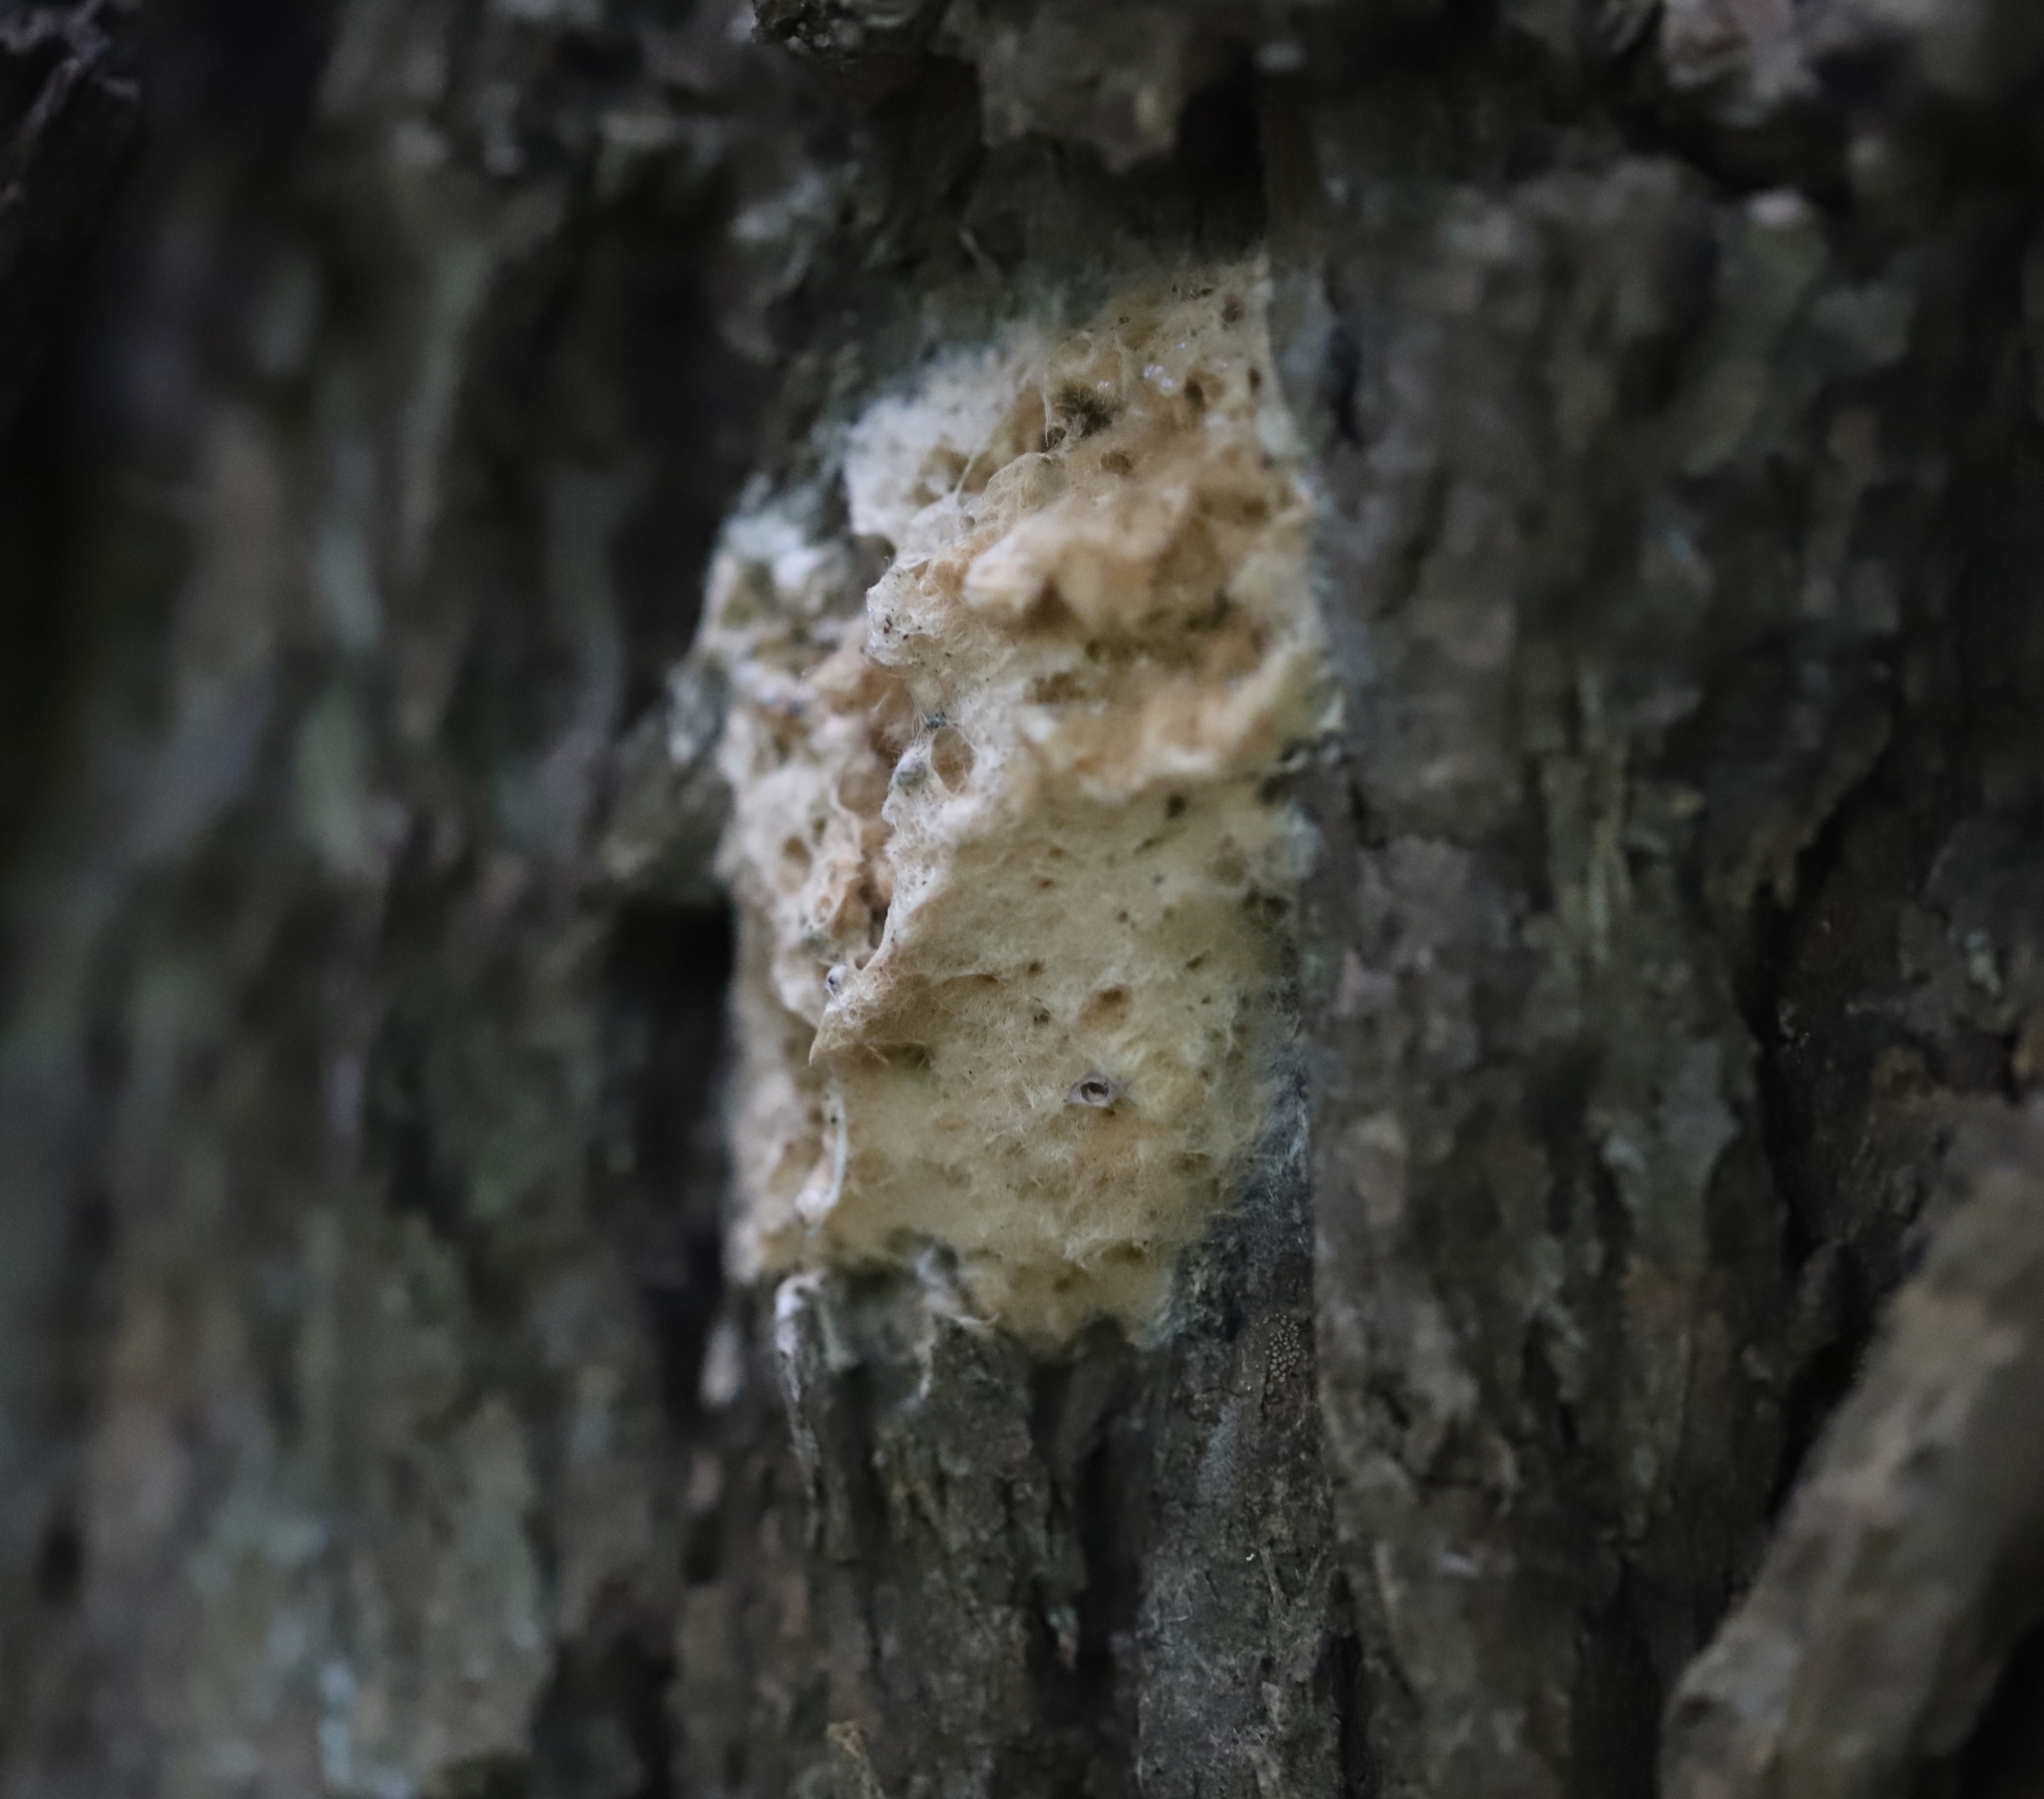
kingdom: Animalia
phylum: Arthropoda
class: Insecta
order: Lepidoptera
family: Erebidae
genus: Lymantria
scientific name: Lymantria dispar
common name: Gypsy moth
